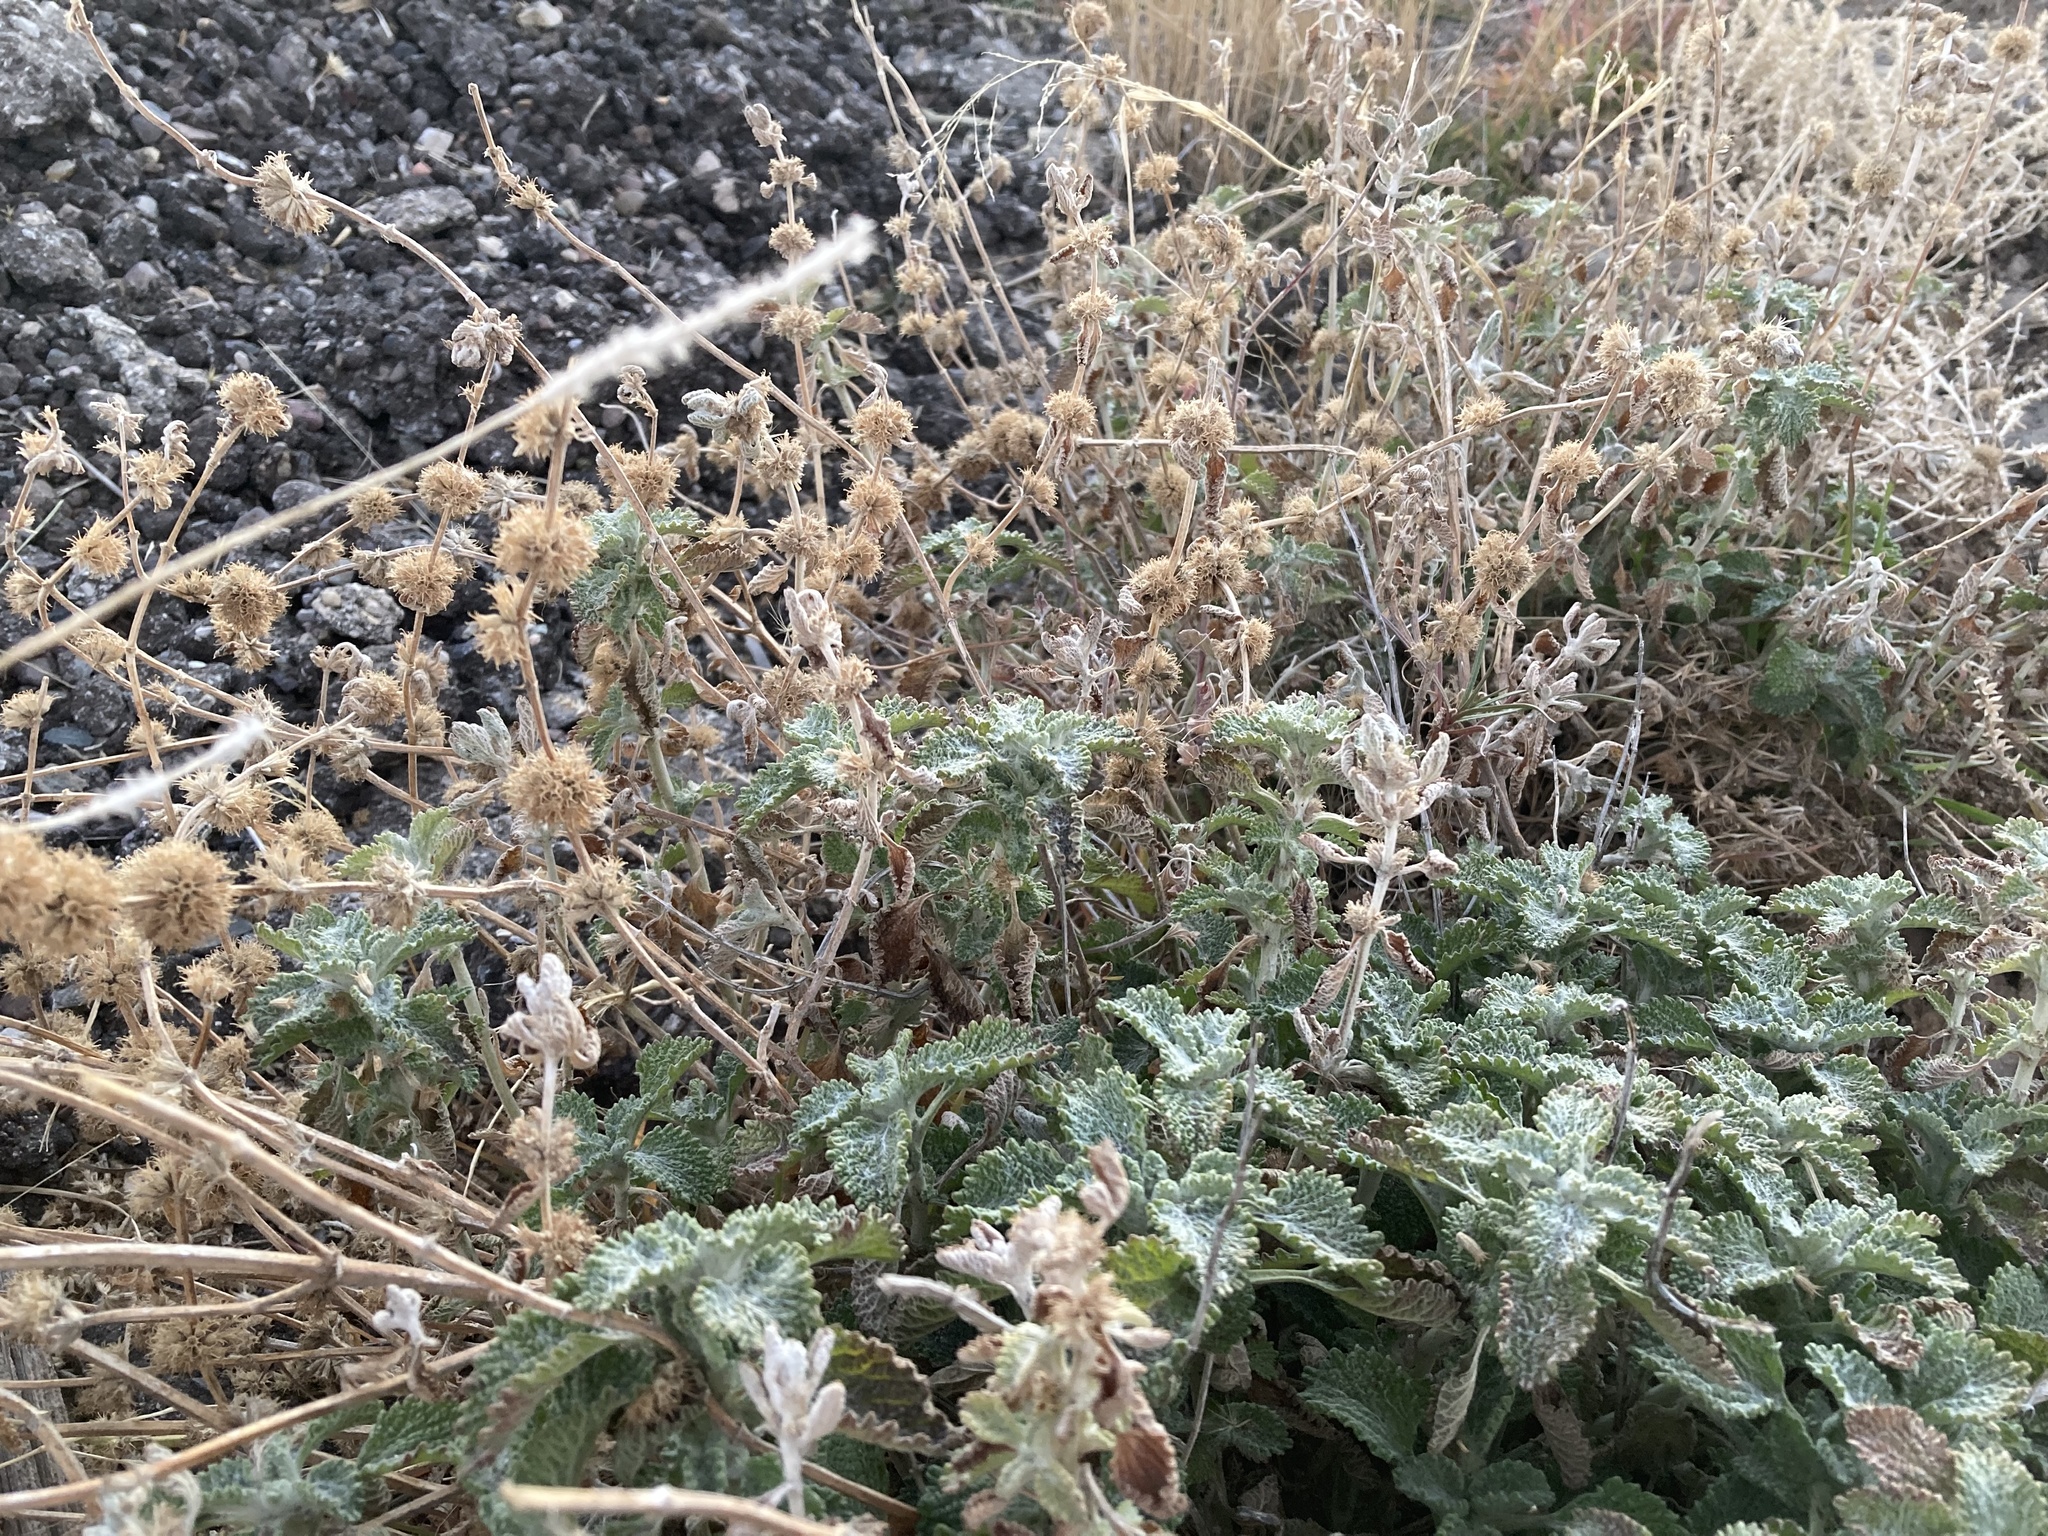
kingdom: Plantae
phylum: Tracheophyta
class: Magnoliopsida
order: Lamiales
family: Lamiaceae
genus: Marrubium
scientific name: Marrubium vulgare
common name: Horehound
